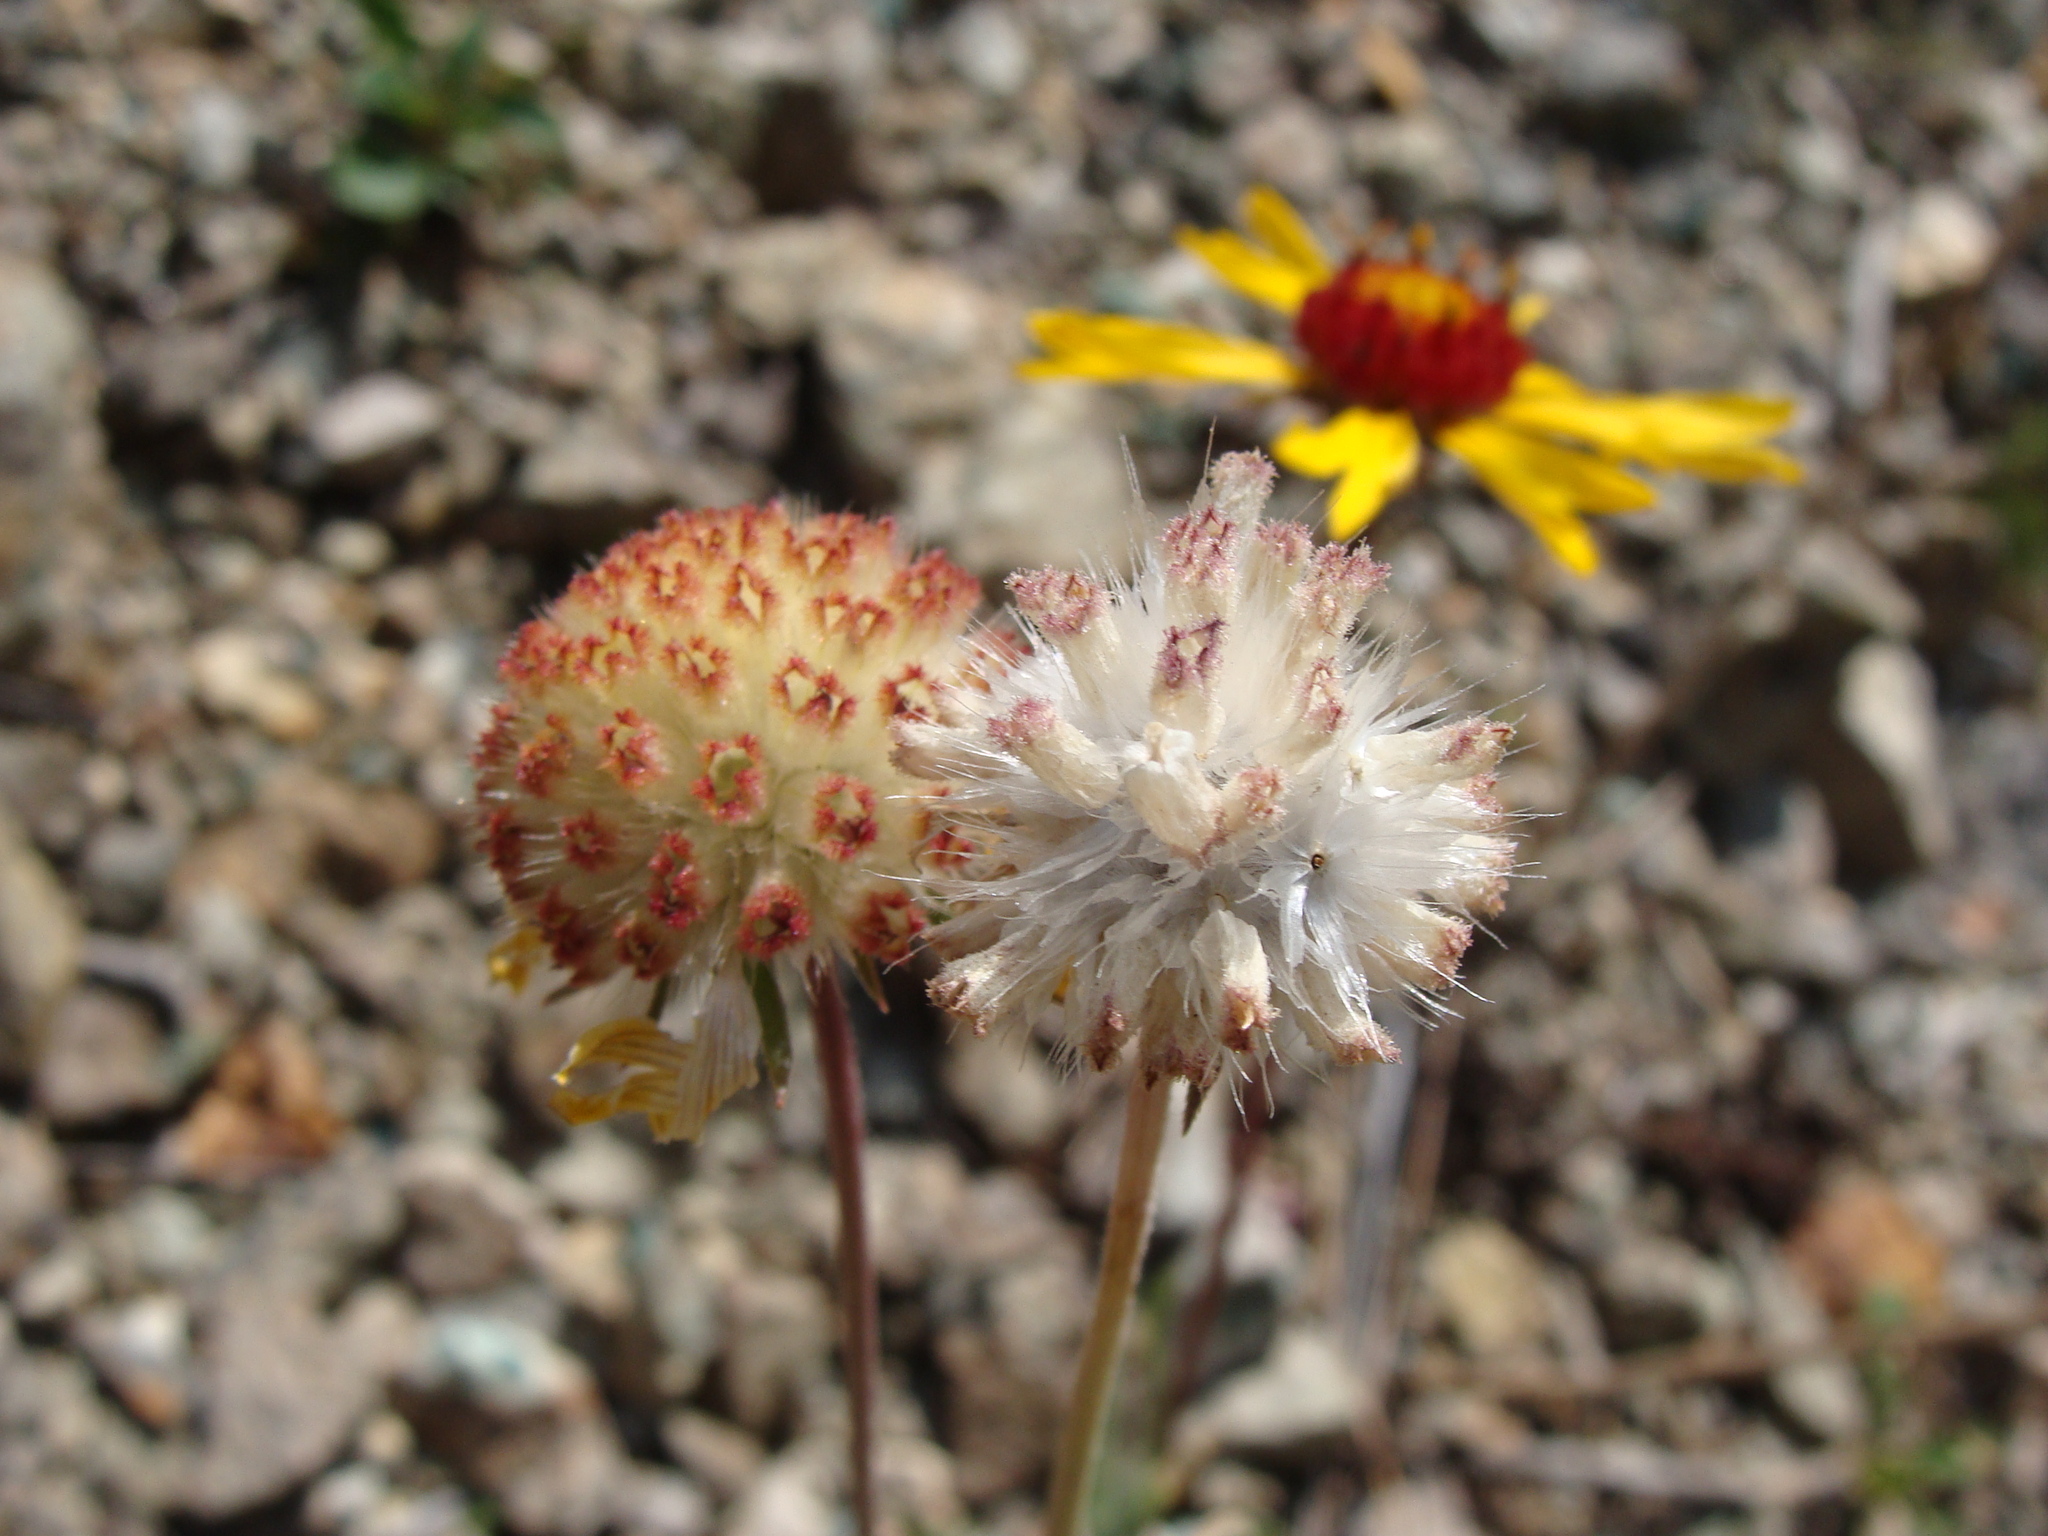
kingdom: Plantae
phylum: Tracheophyta
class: Magnoliopsida
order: Asterales
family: Asteraceae
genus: Gaillardia
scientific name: Gaillardia pinnatifida
